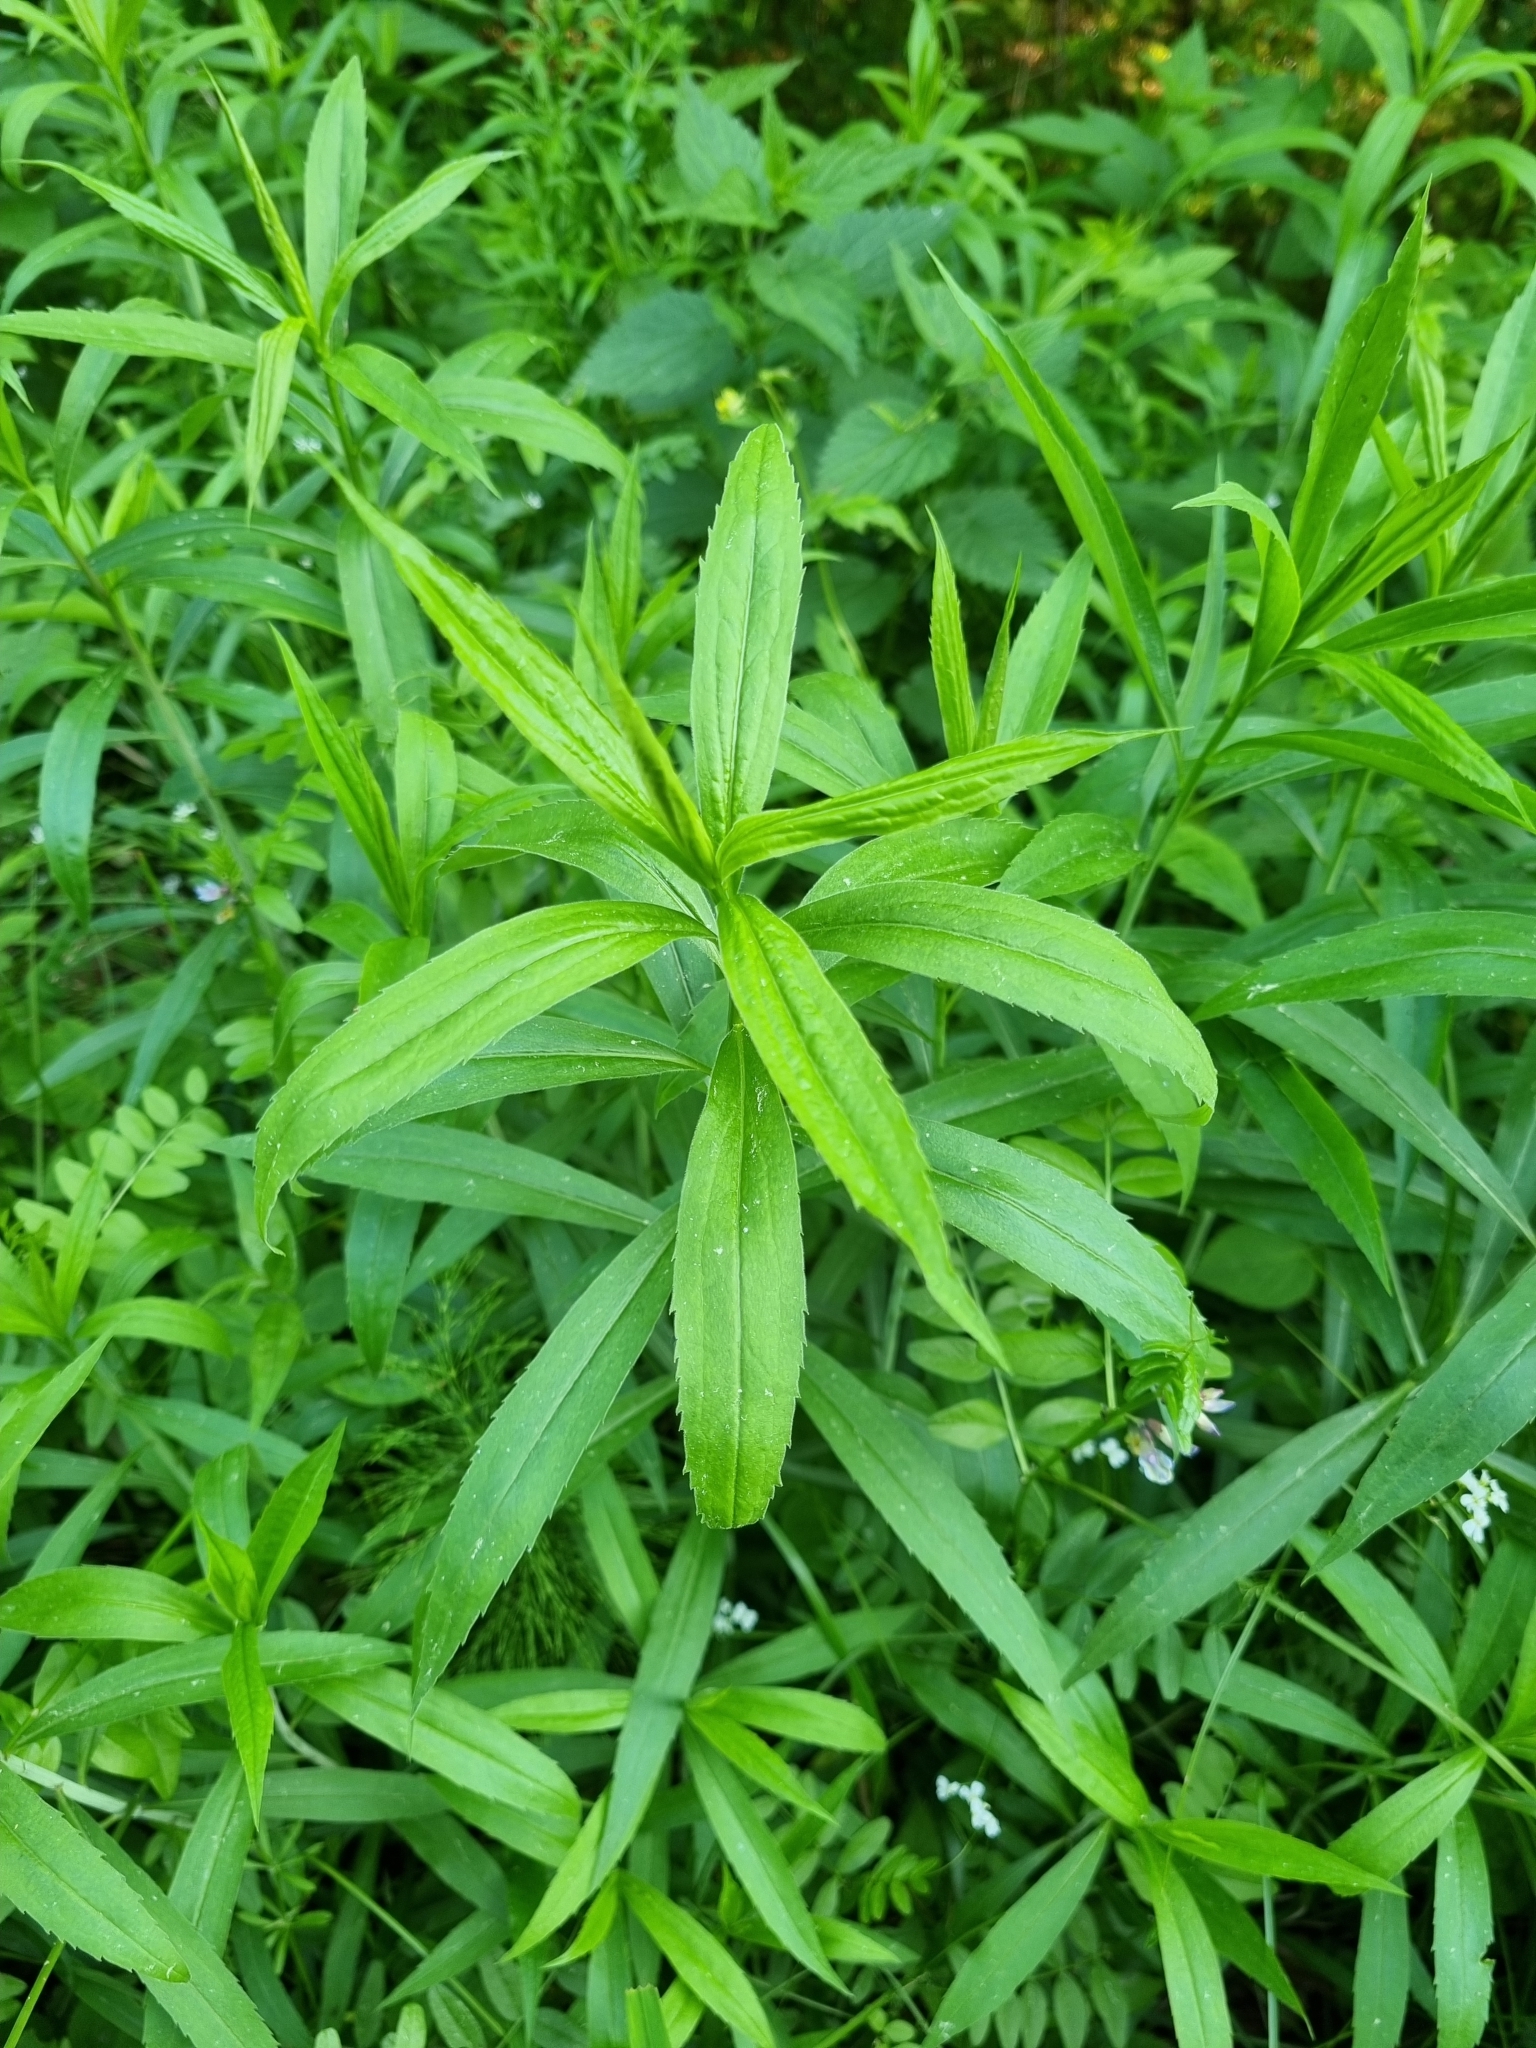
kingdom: Plantae
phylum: Tracheophyta
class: Magnoliopsida
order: Asterales
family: Asteraceae
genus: Solidago
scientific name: Solidago gigantea
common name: Giant goldenrod
